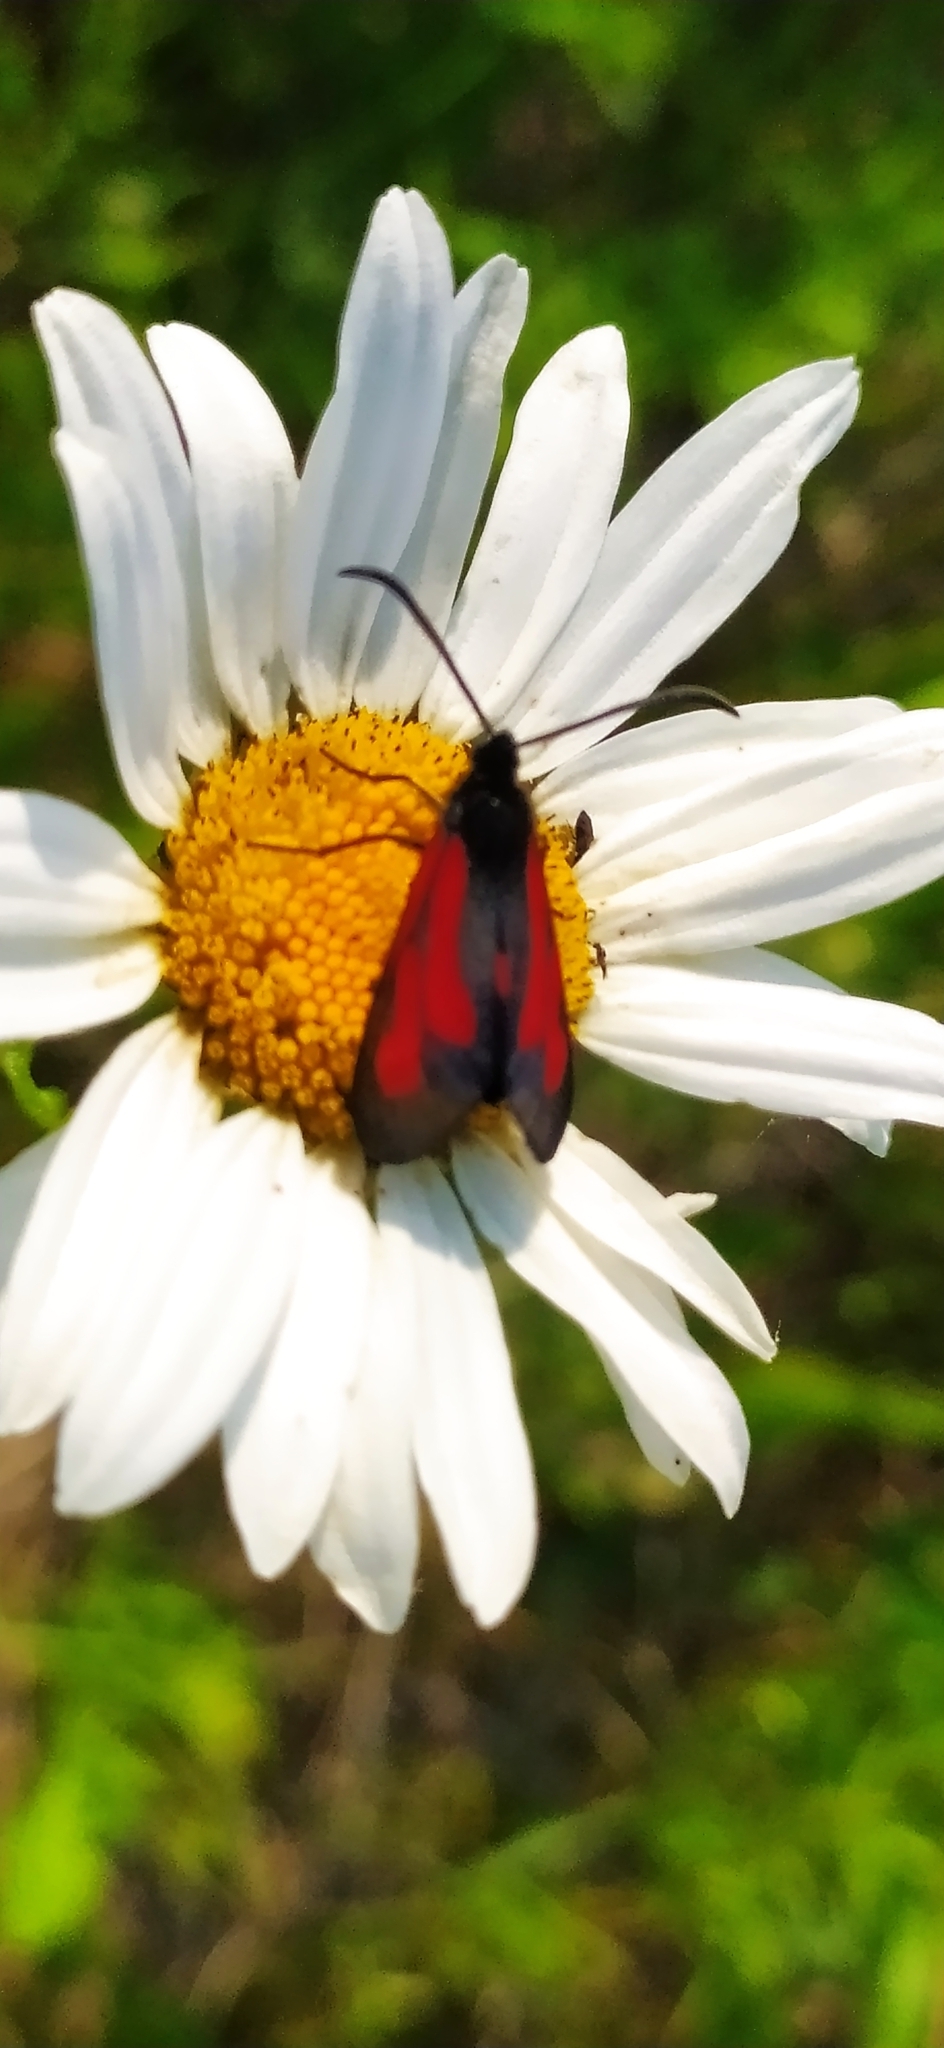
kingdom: Animalia
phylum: Arthropoda
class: Insecta
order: Lepidoptera
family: Zygaenidae
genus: Zygaena
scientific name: Zygaena osterodensis
